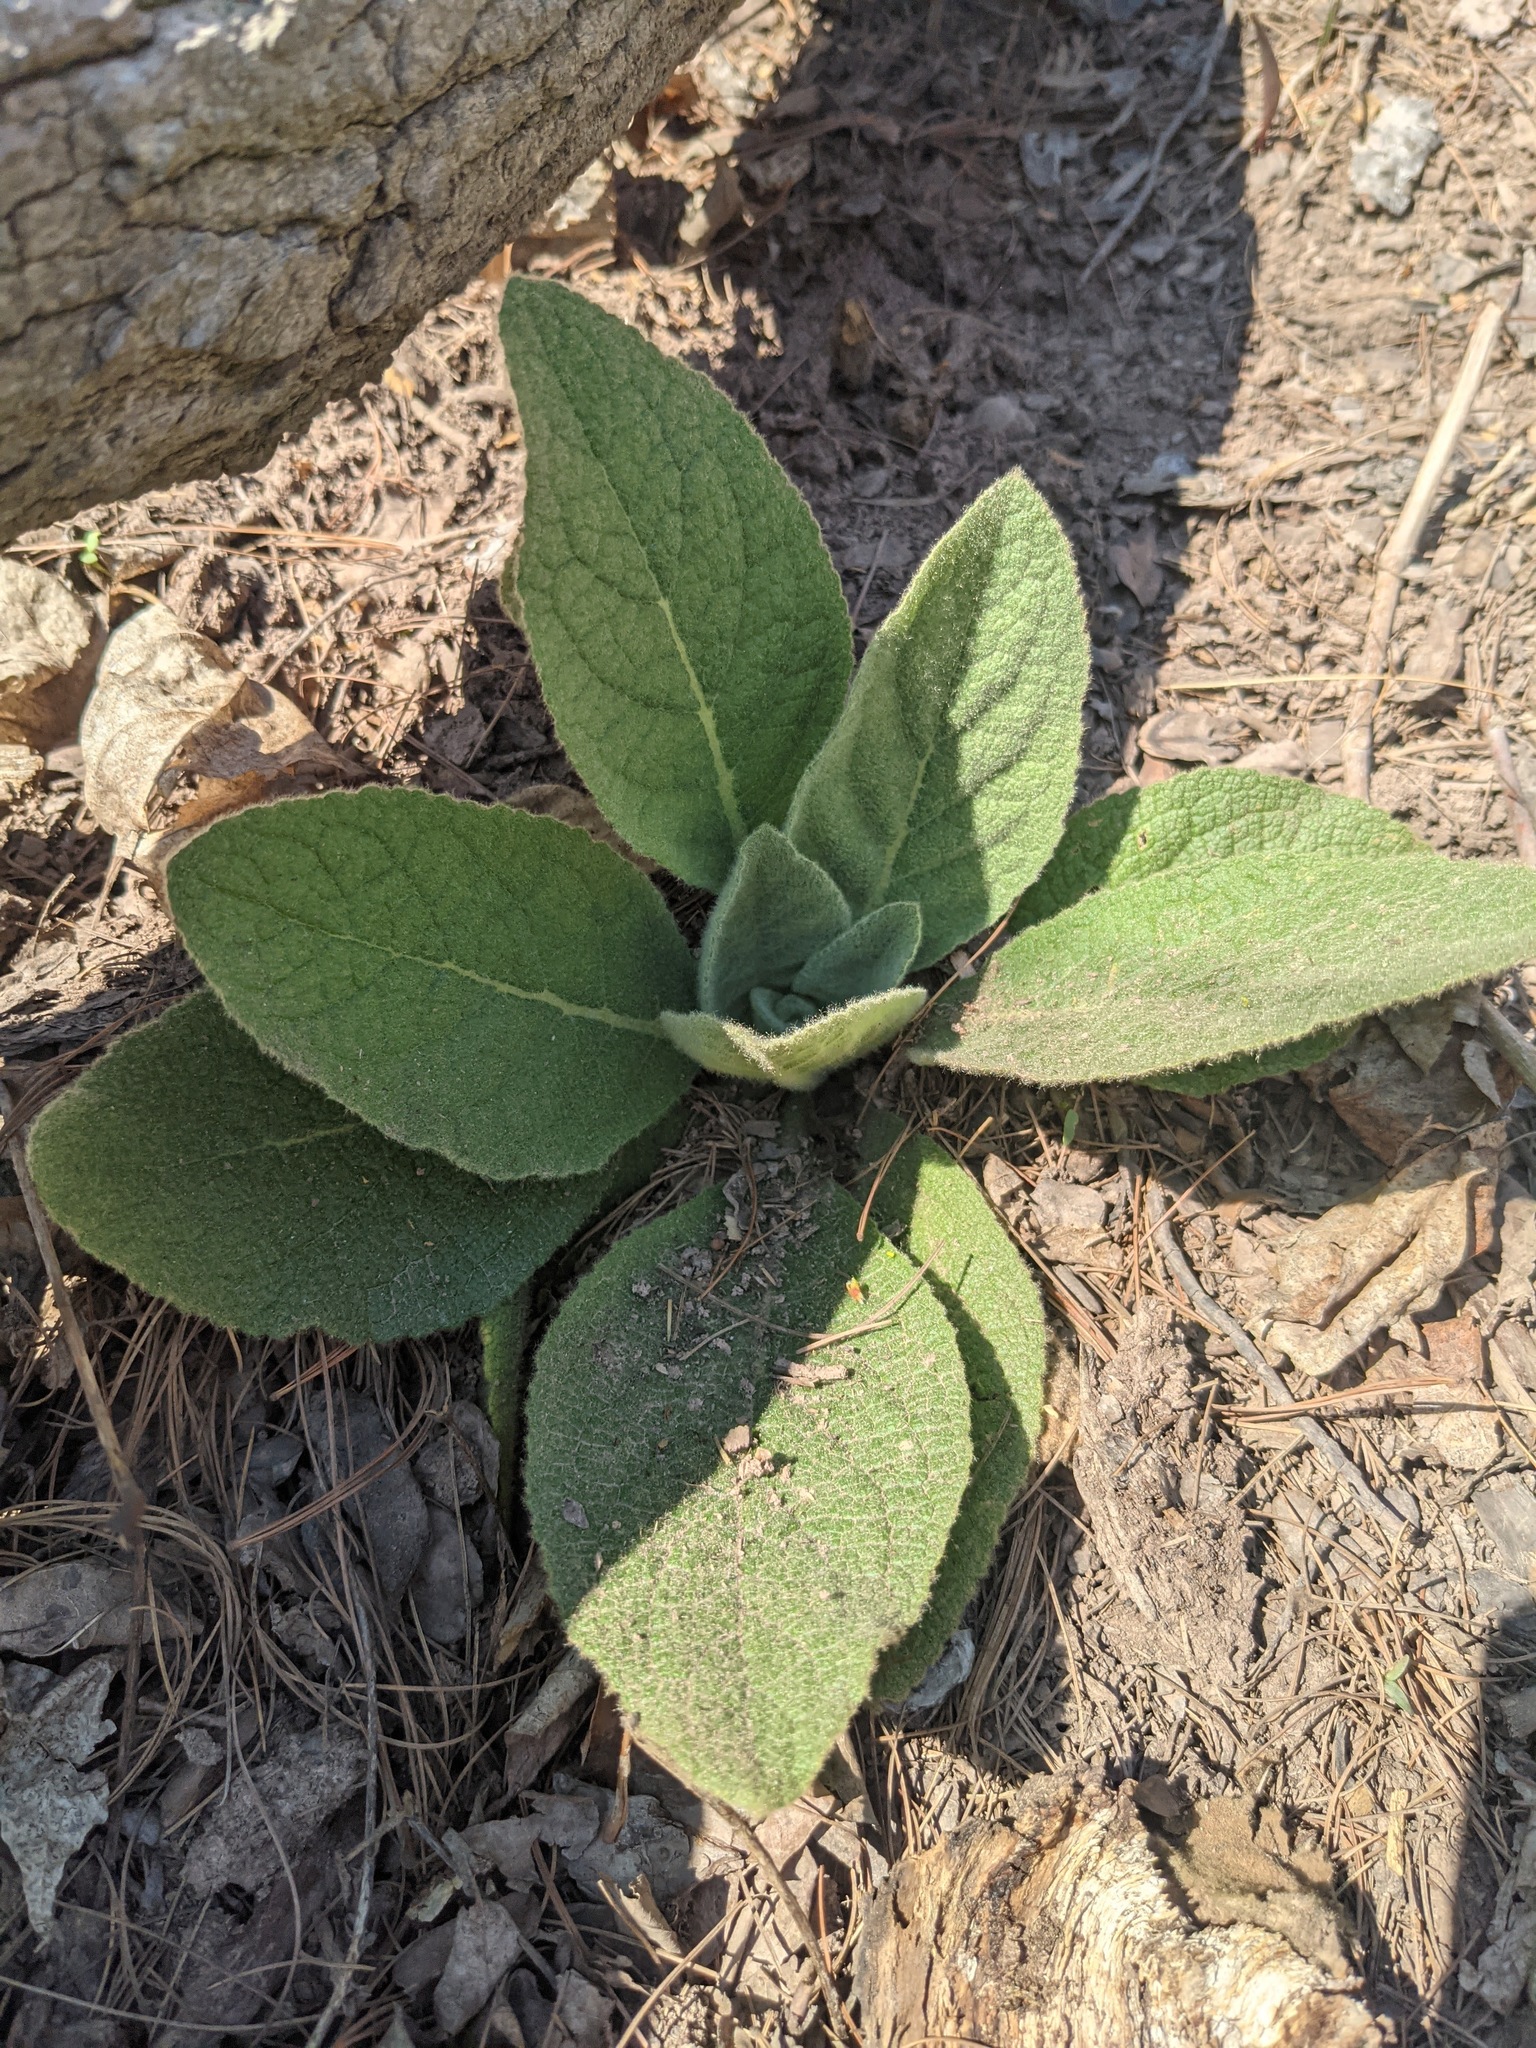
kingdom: Plantae
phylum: Tracheophyta
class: Magnoliopsida
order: Lamiales
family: Scrophulariaceae
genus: Verbascum
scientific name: Verbascum thapsus
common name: Common mullein
